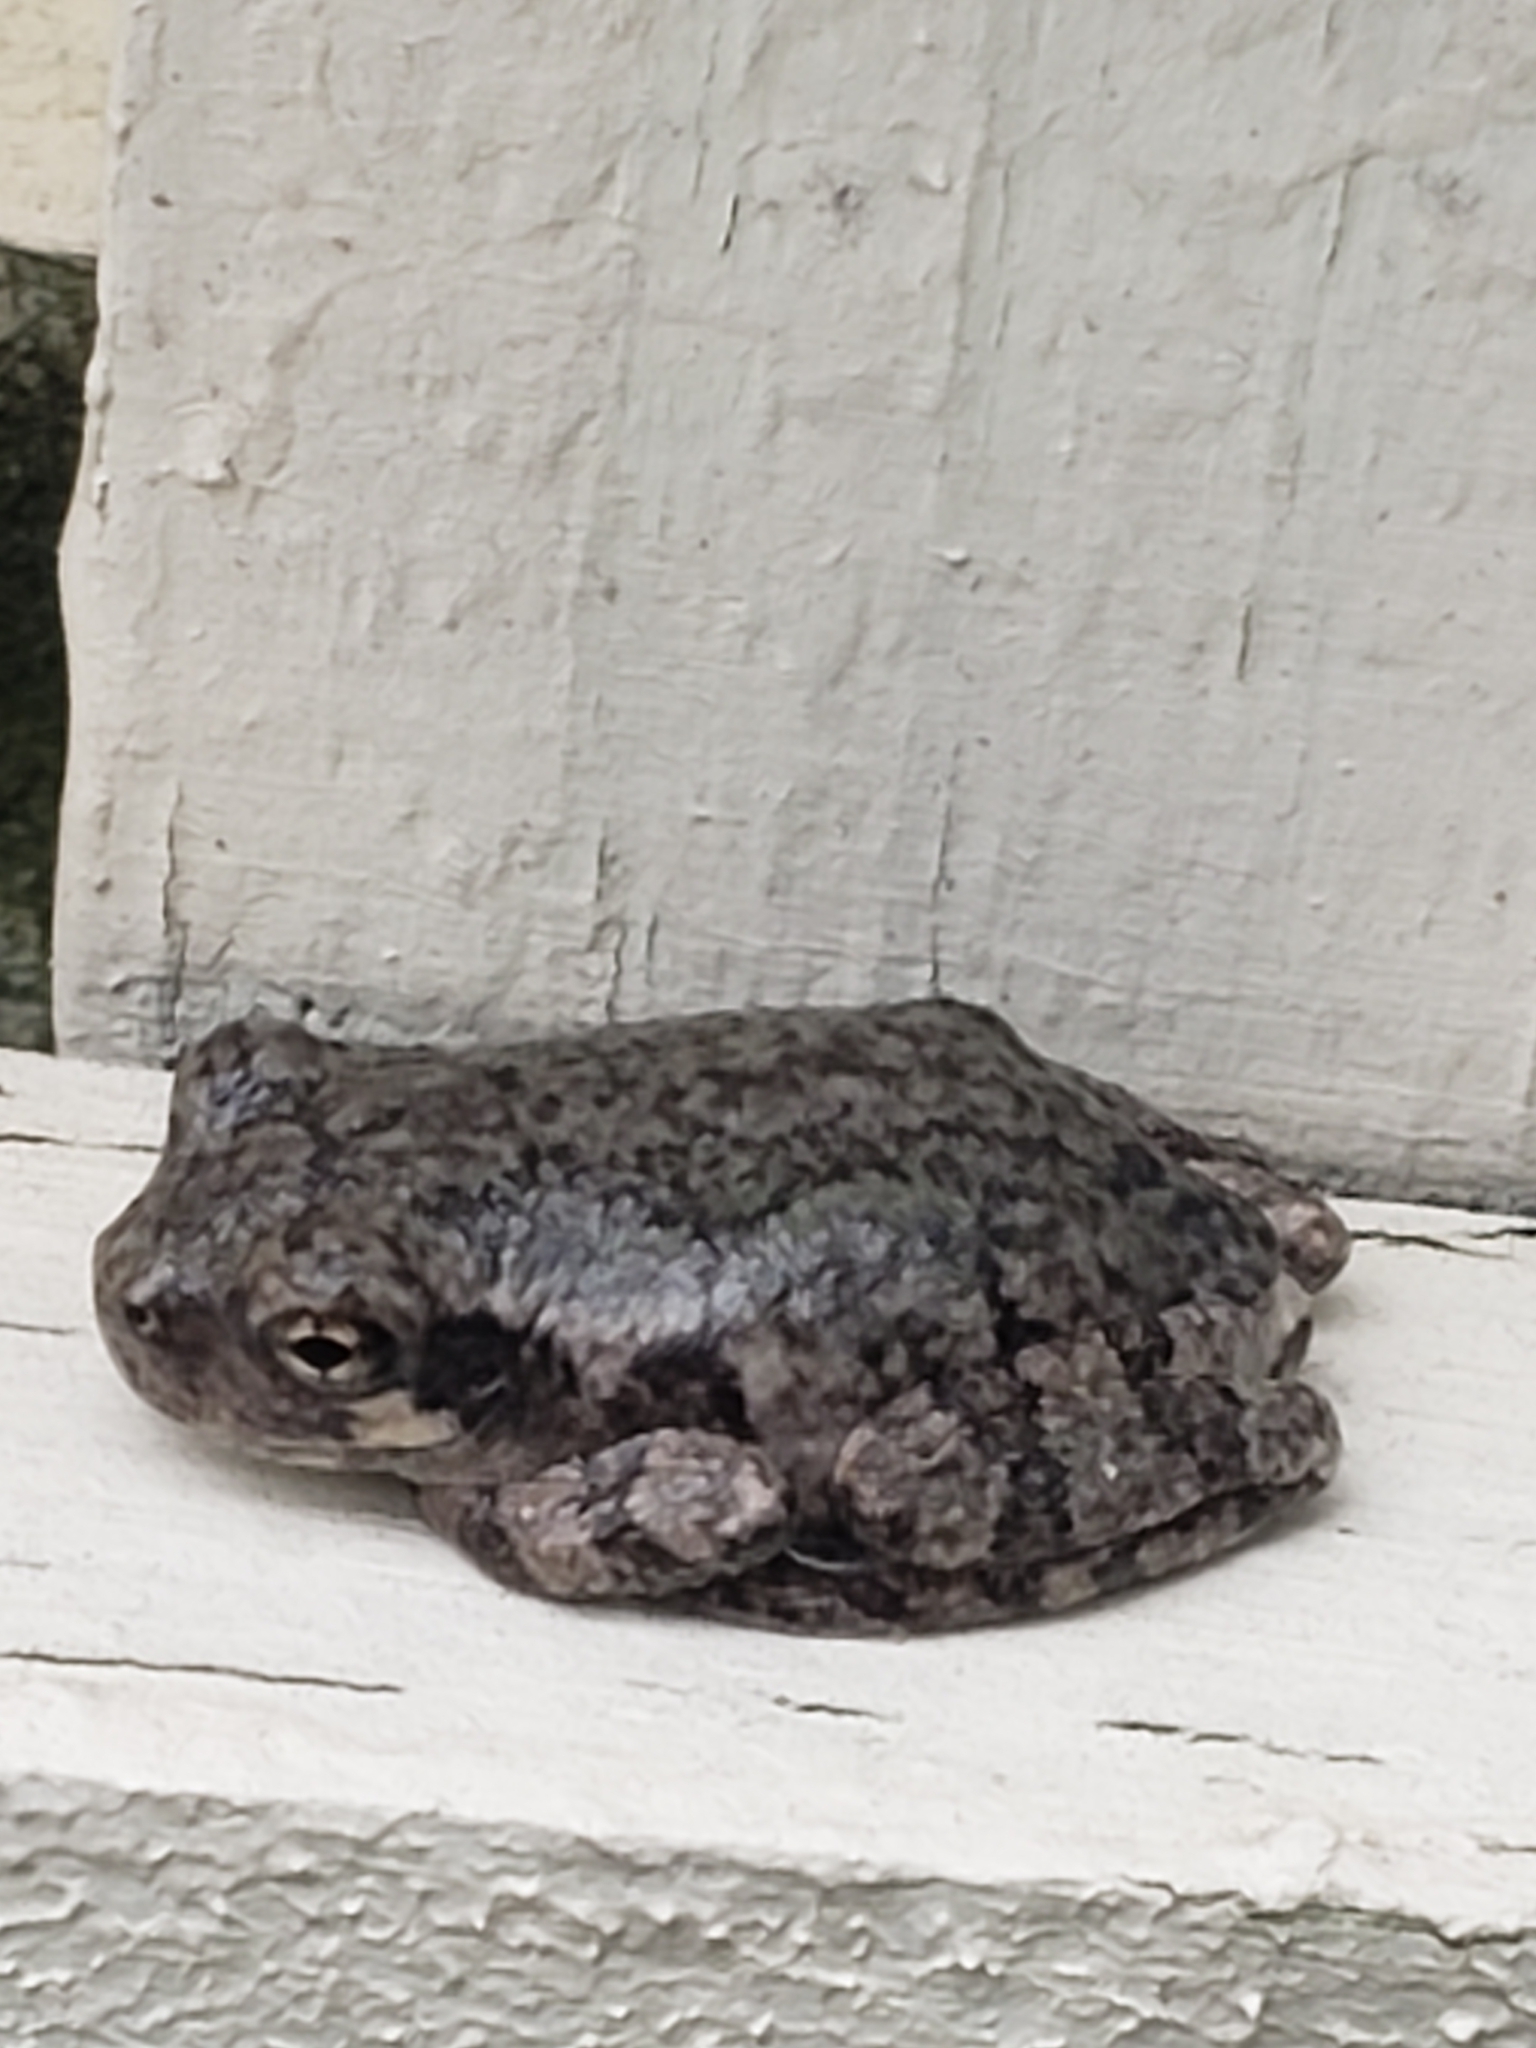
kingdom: Animalia
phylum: Chordata
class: Amphibia
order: Anura
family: Hylidae
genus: Hyla
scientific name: Hyla
